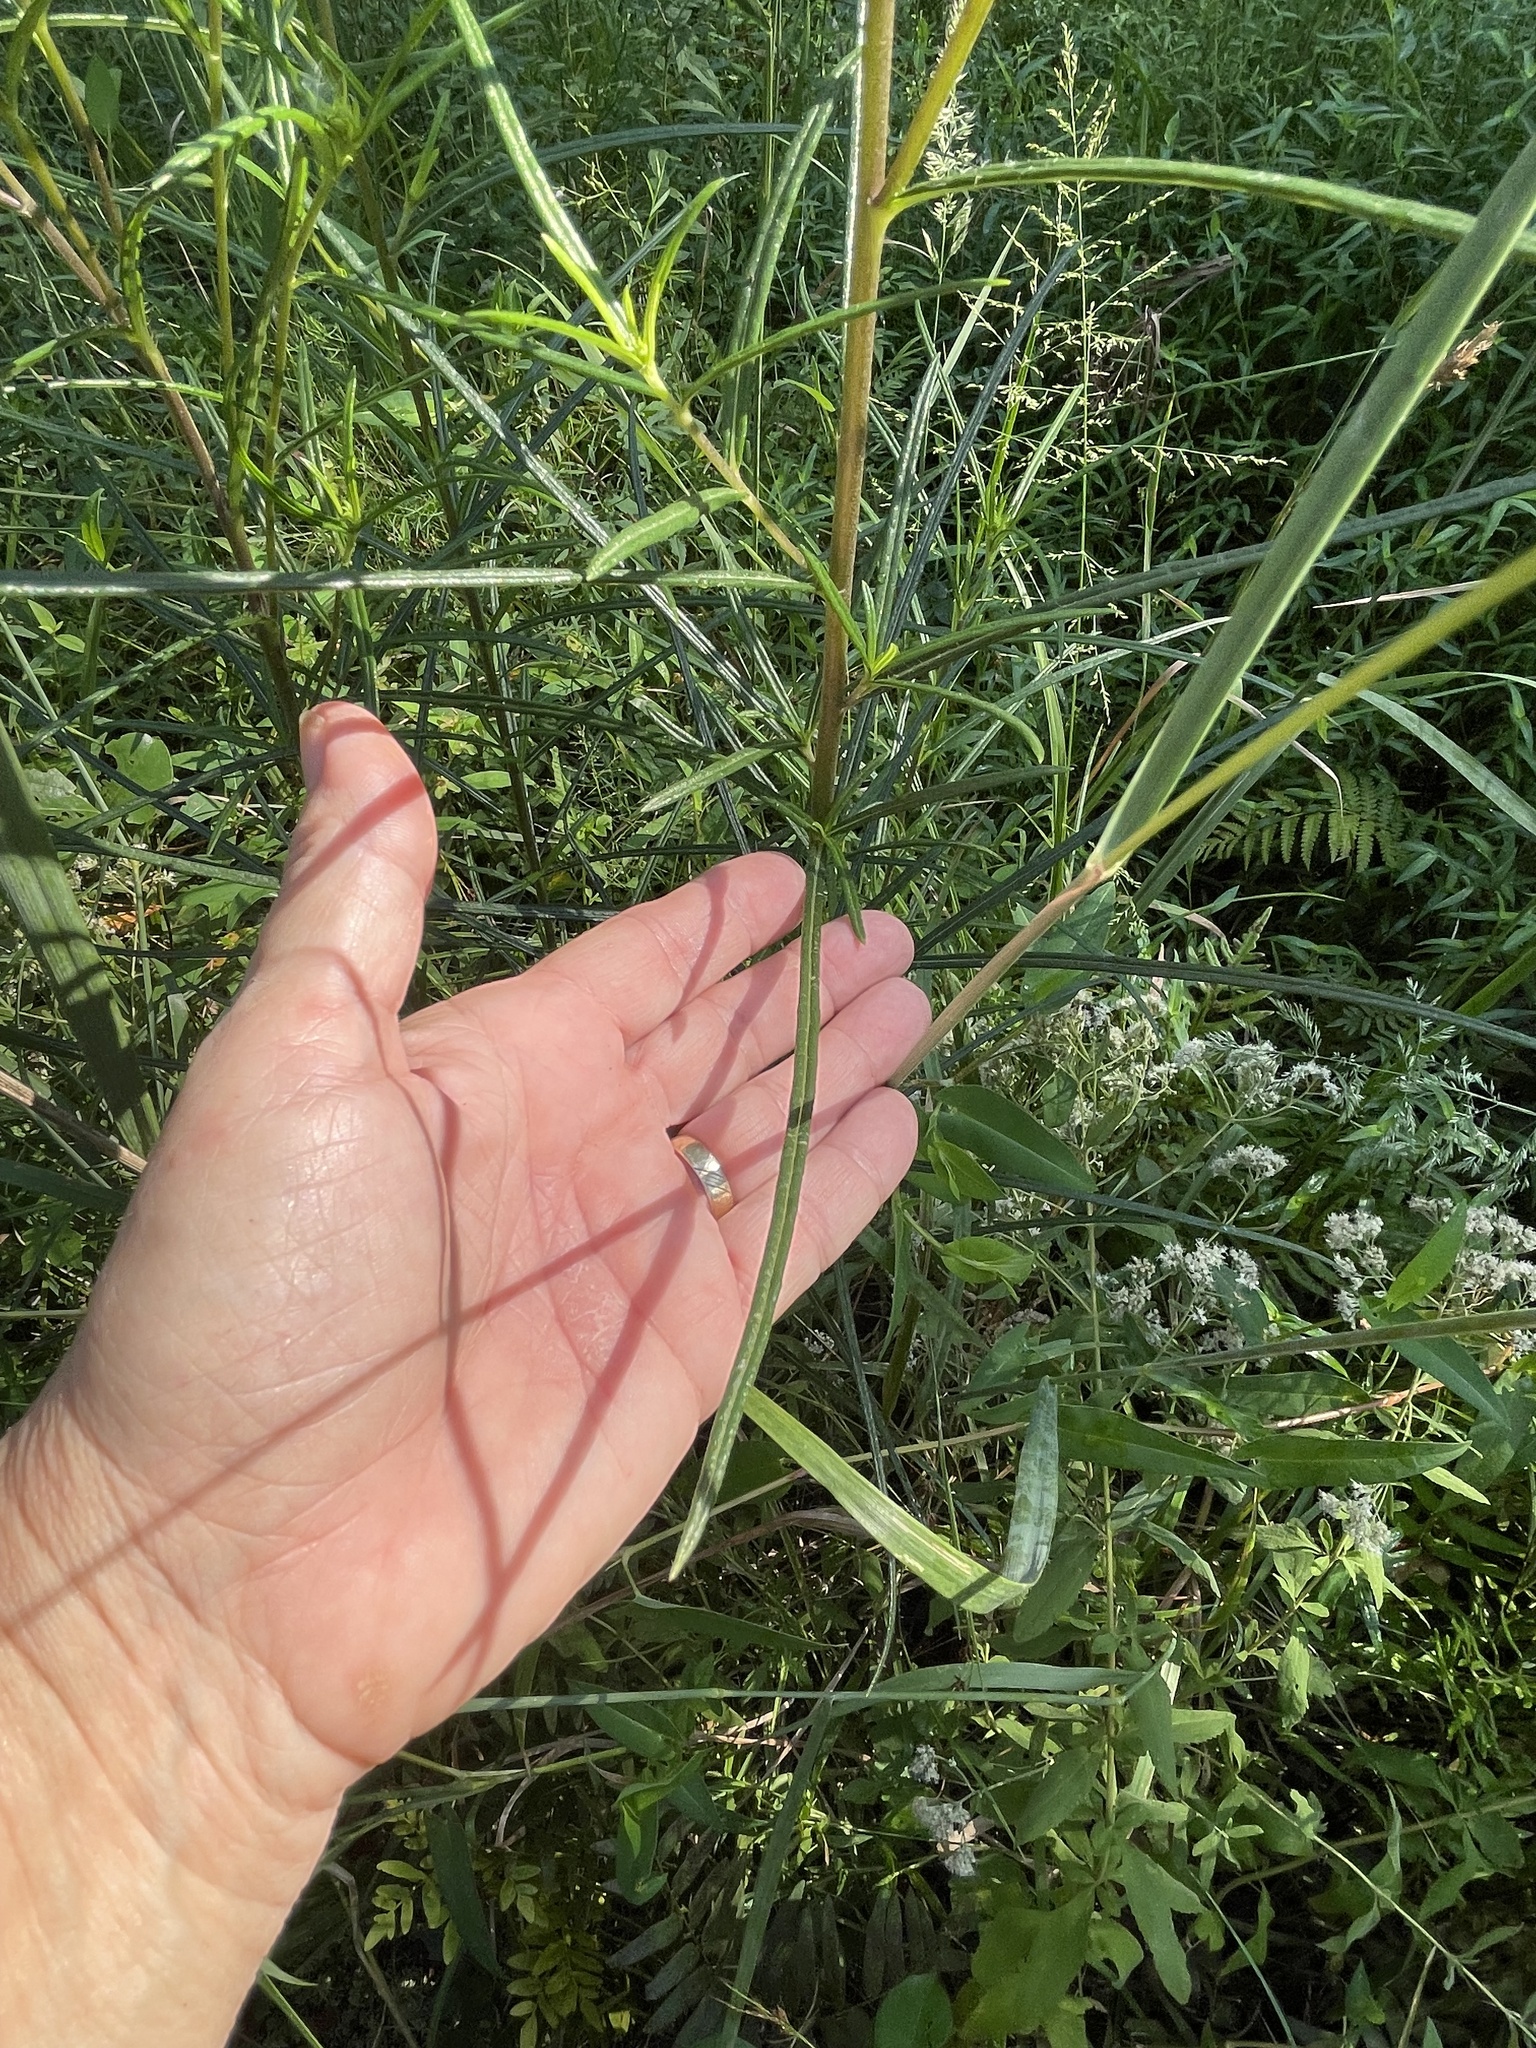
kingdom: Plantae
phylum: Tracheophyta
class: Magnoliopsida
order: Asterales
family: Asteraceae
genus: Helianthus
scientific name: Helianthus angustifolius
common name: Swamp sunflower
